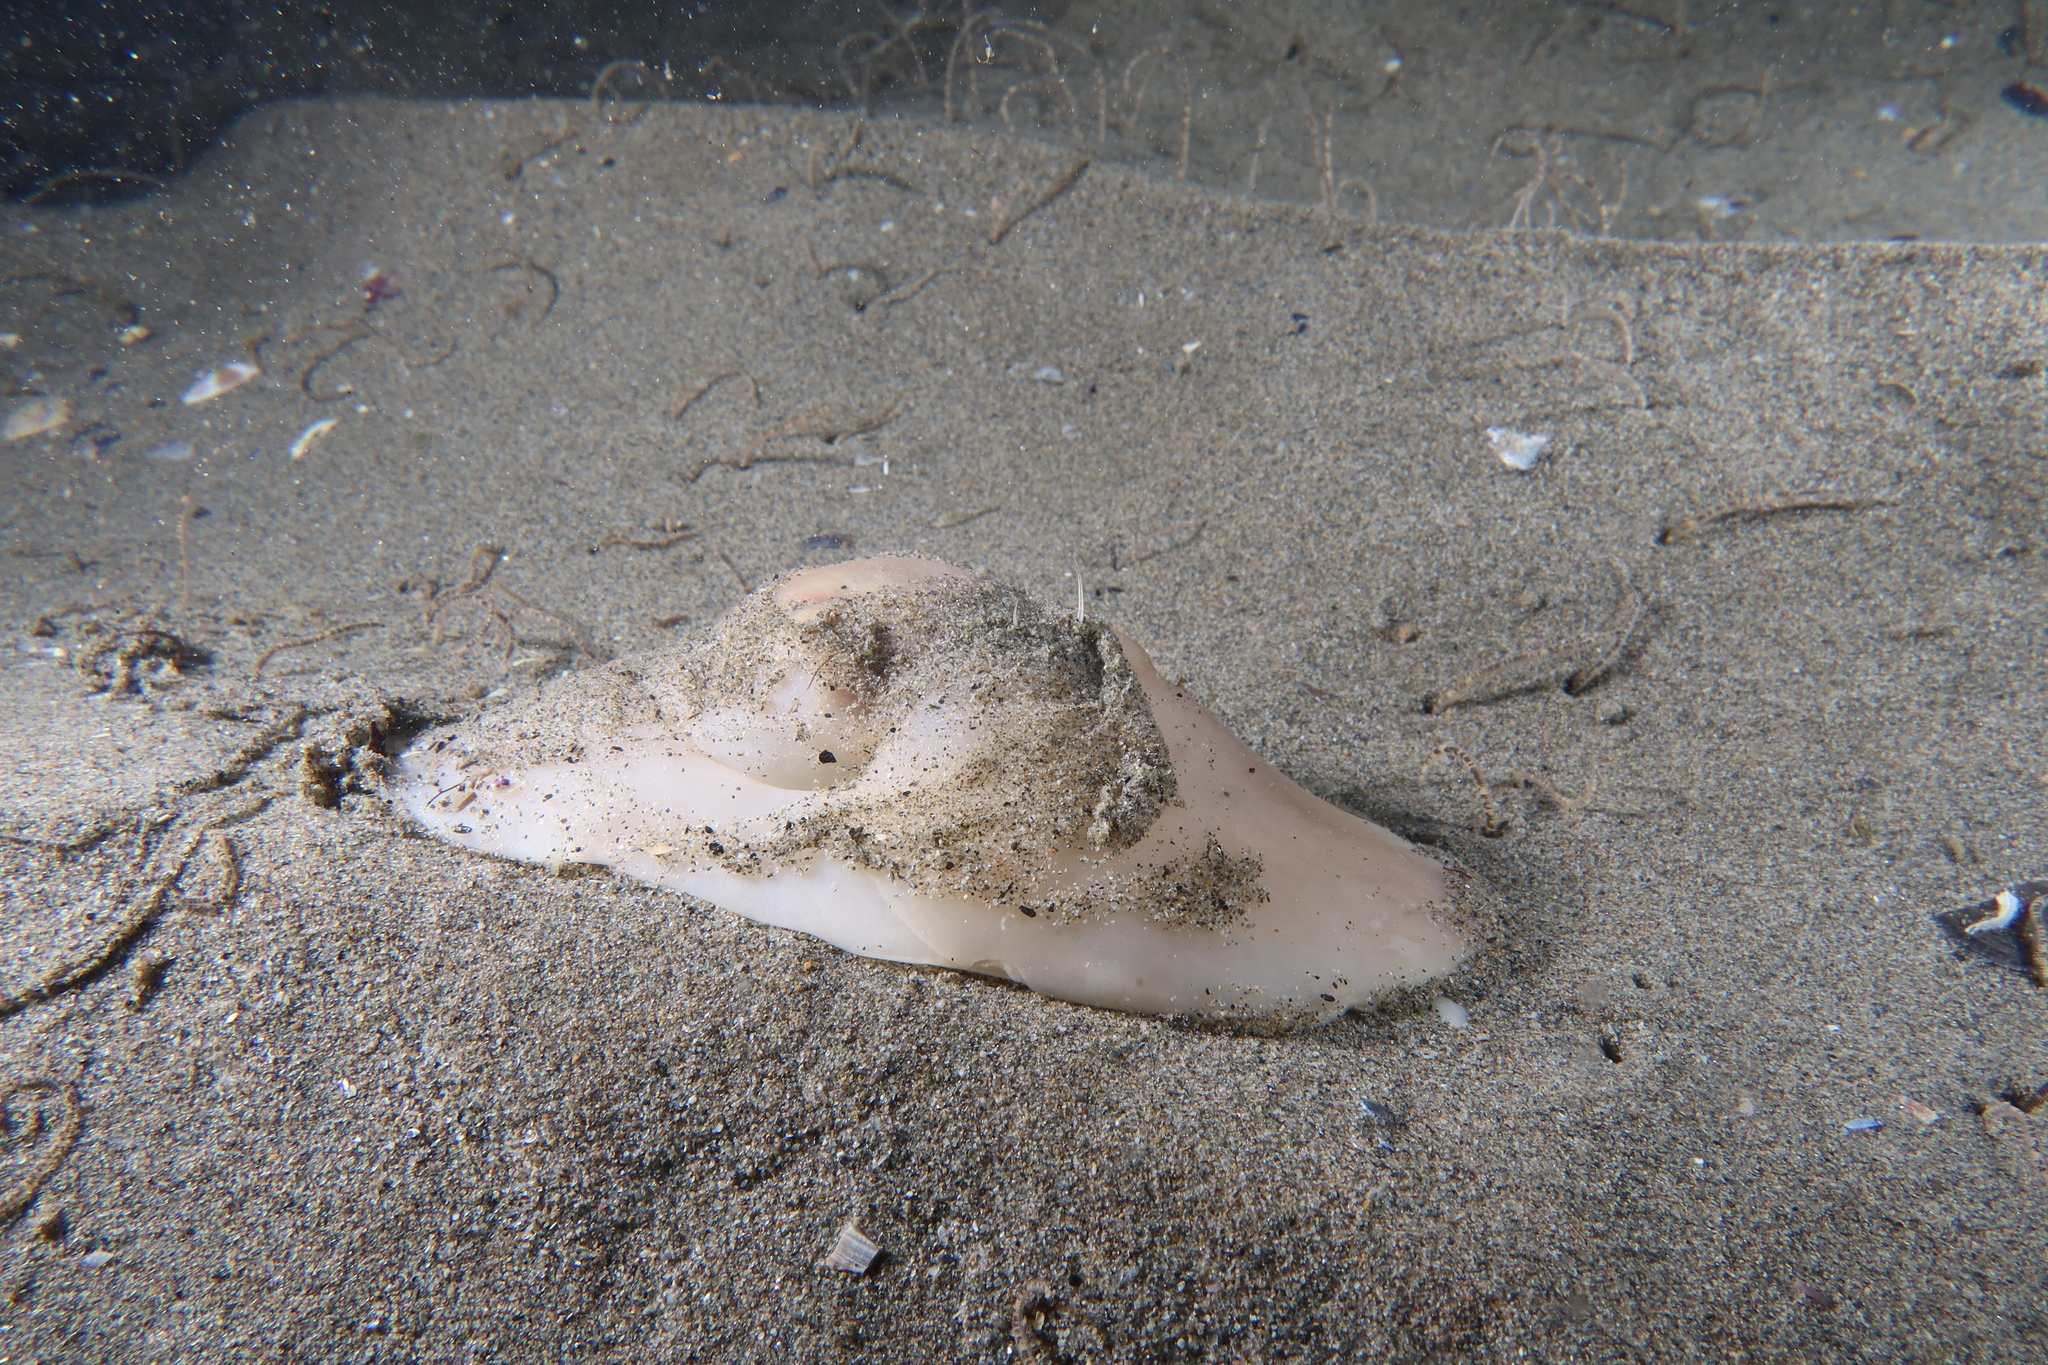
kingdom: Animalia
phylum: Mollusca
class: Gastropoda
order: Littorinimorpha
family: Naticidae
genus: Neverita
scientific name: Neverita josephinia
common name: Josephine's moonsnail
